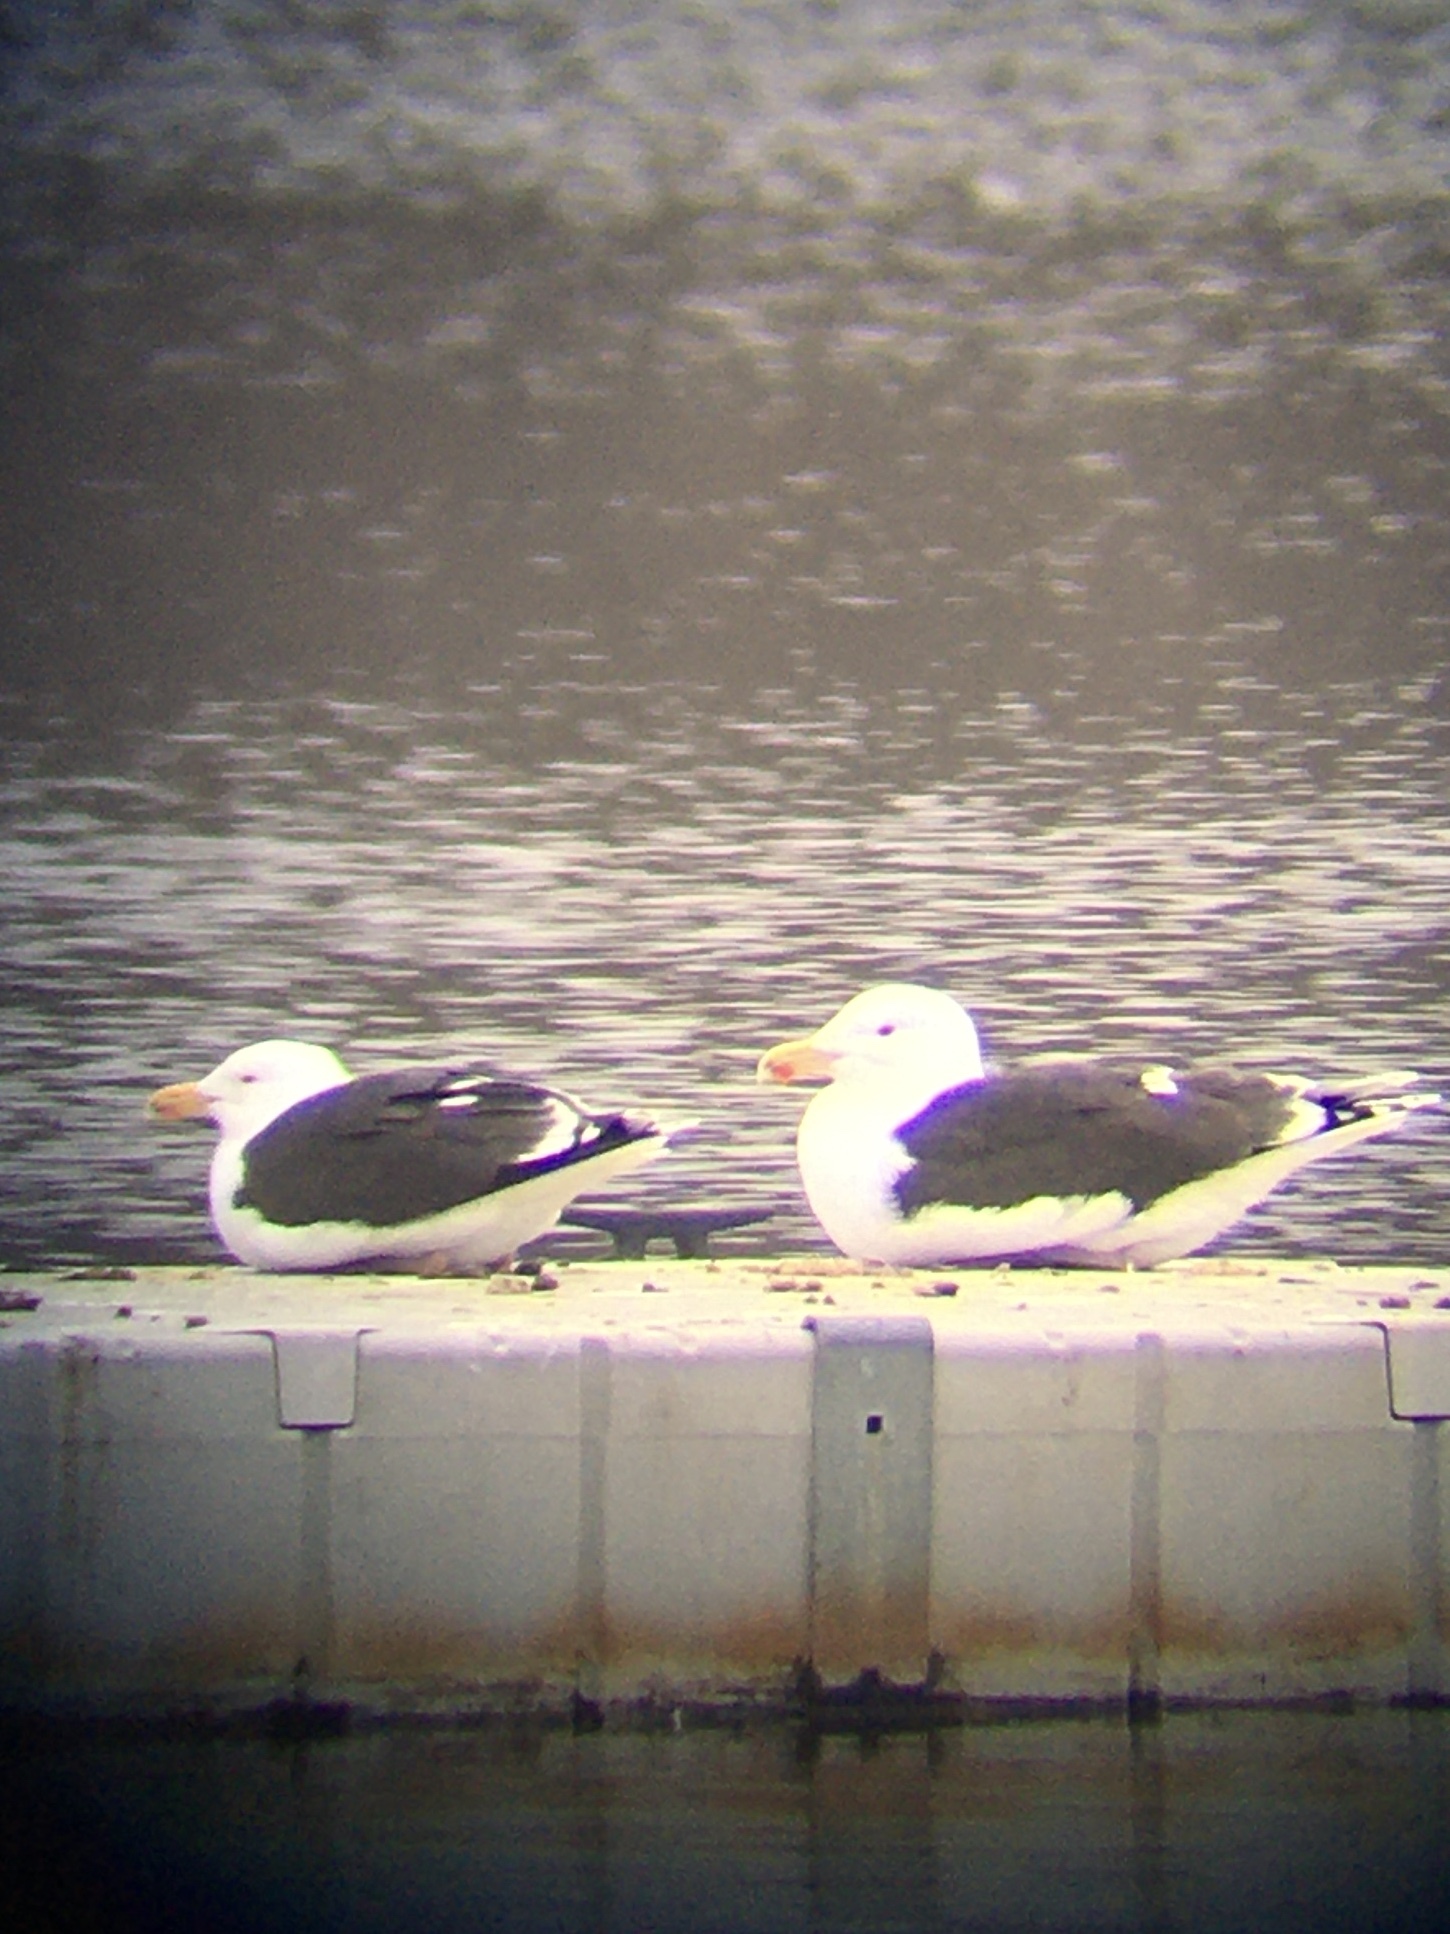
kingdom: Animalia
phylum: Chordata
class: Aves
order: Charadriiformes
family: Laridae
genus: Larus
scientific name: Larus marinus
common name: Great black-backed gull
